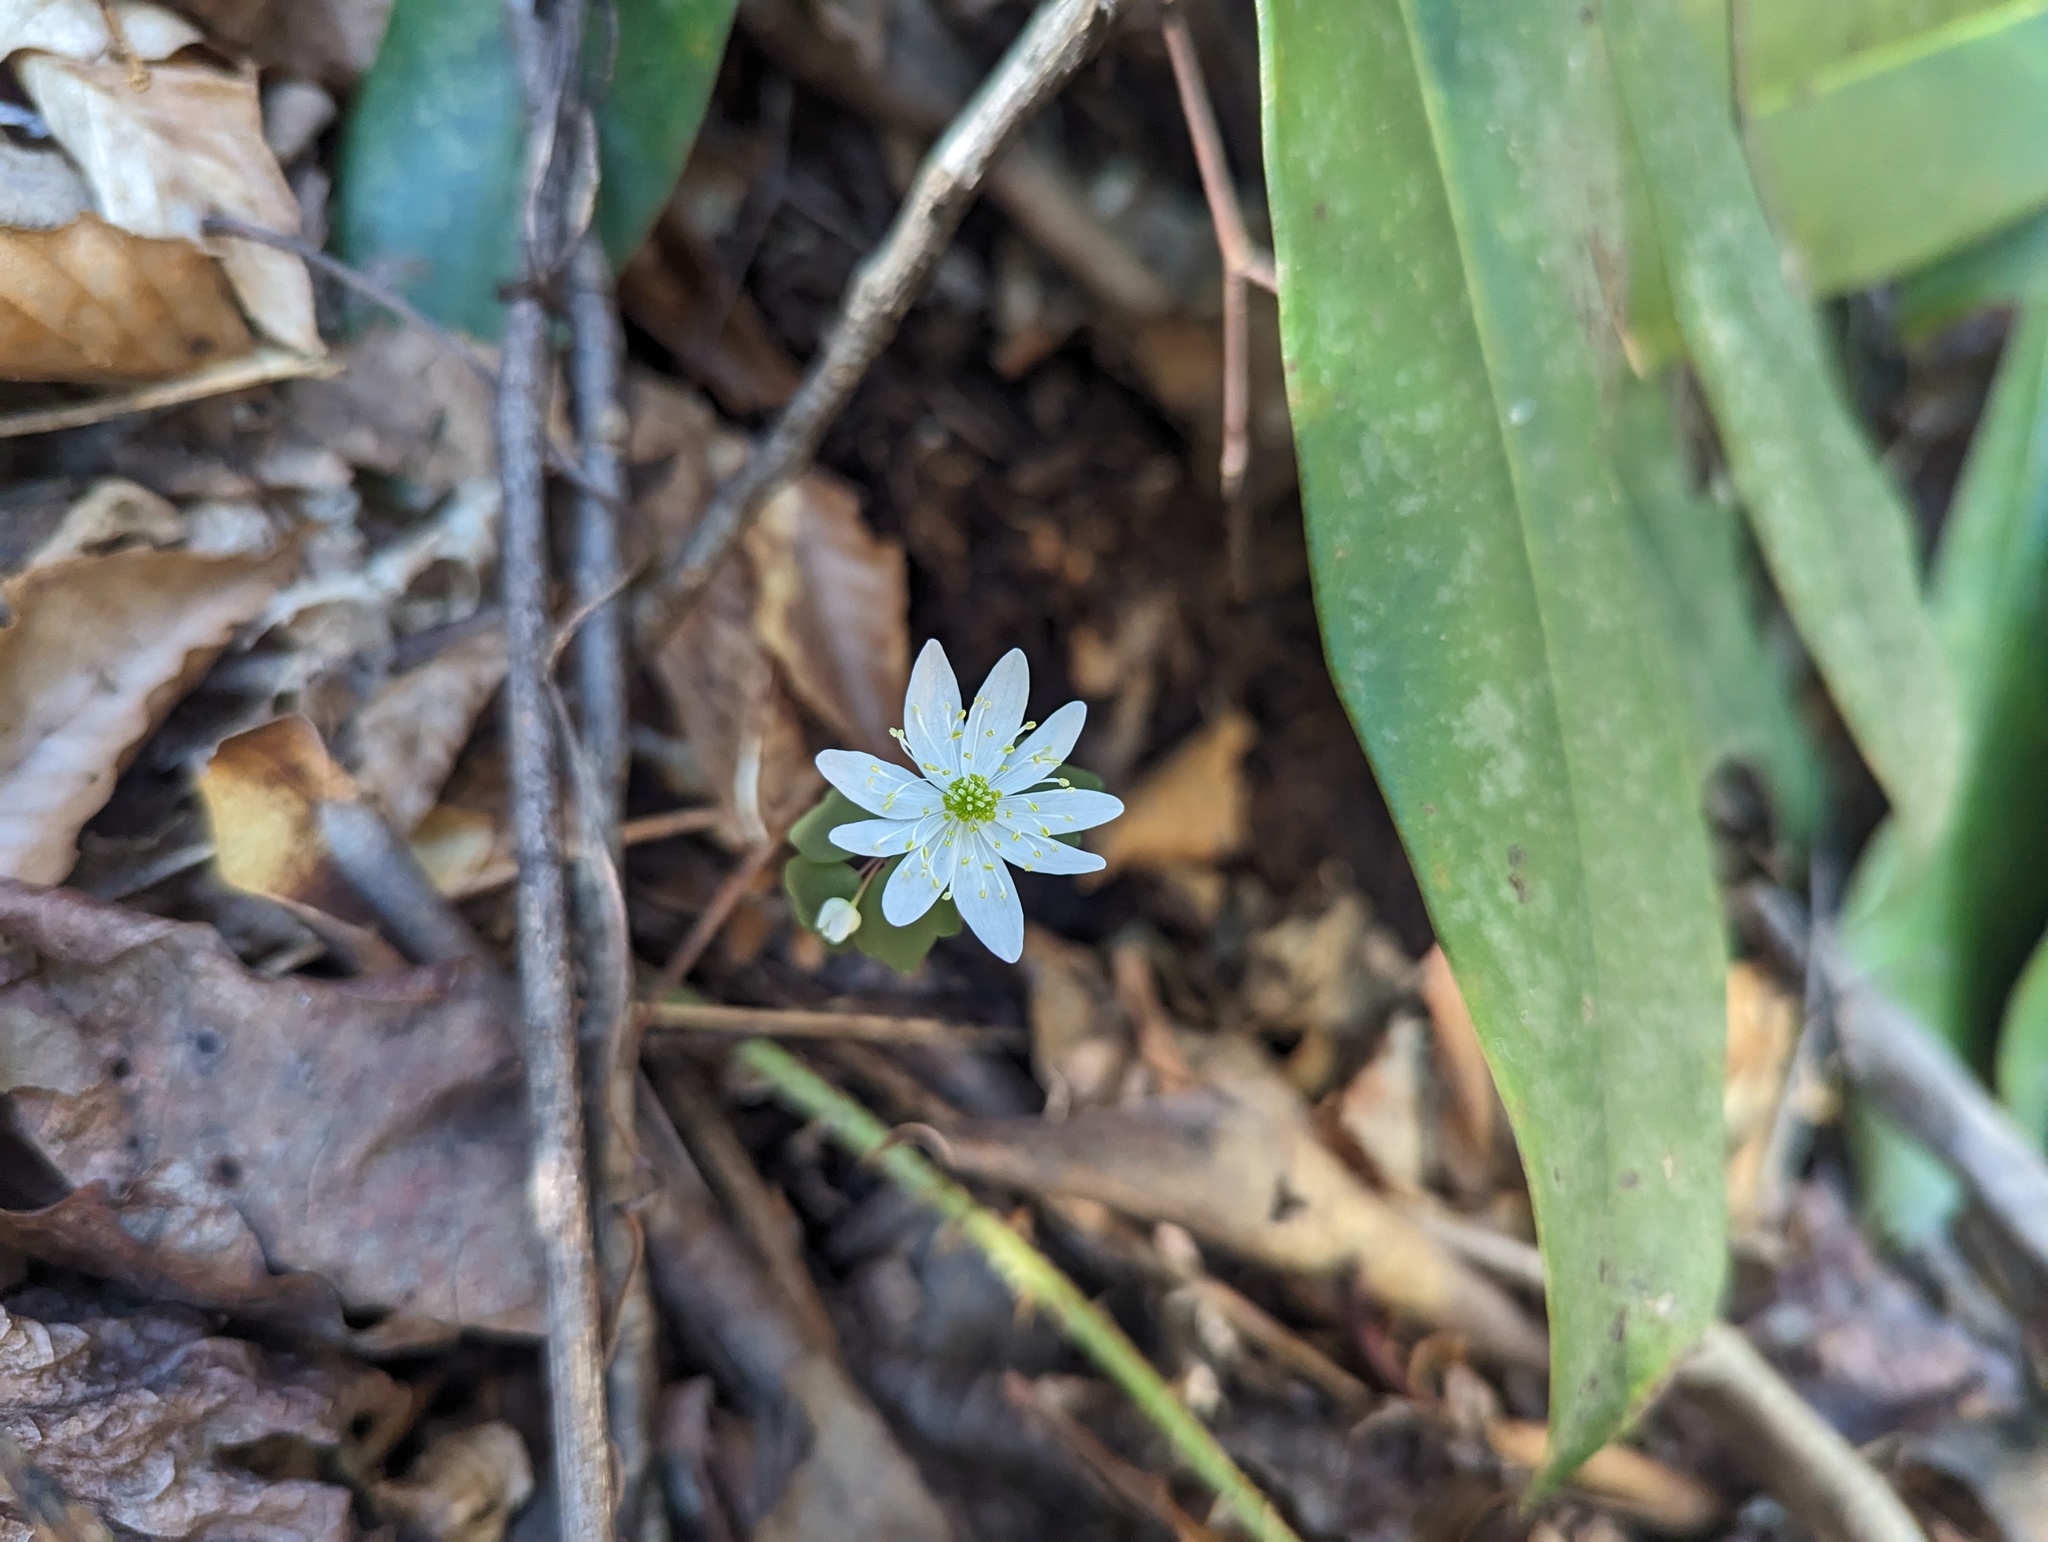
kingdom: Plantae
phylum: Tracheophyta
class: Magnoliopsida
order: Ranunculales
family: Ranunculaceae
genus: Thalictrum
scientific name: Thalictrum thalictroides
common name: Rue-anemone
